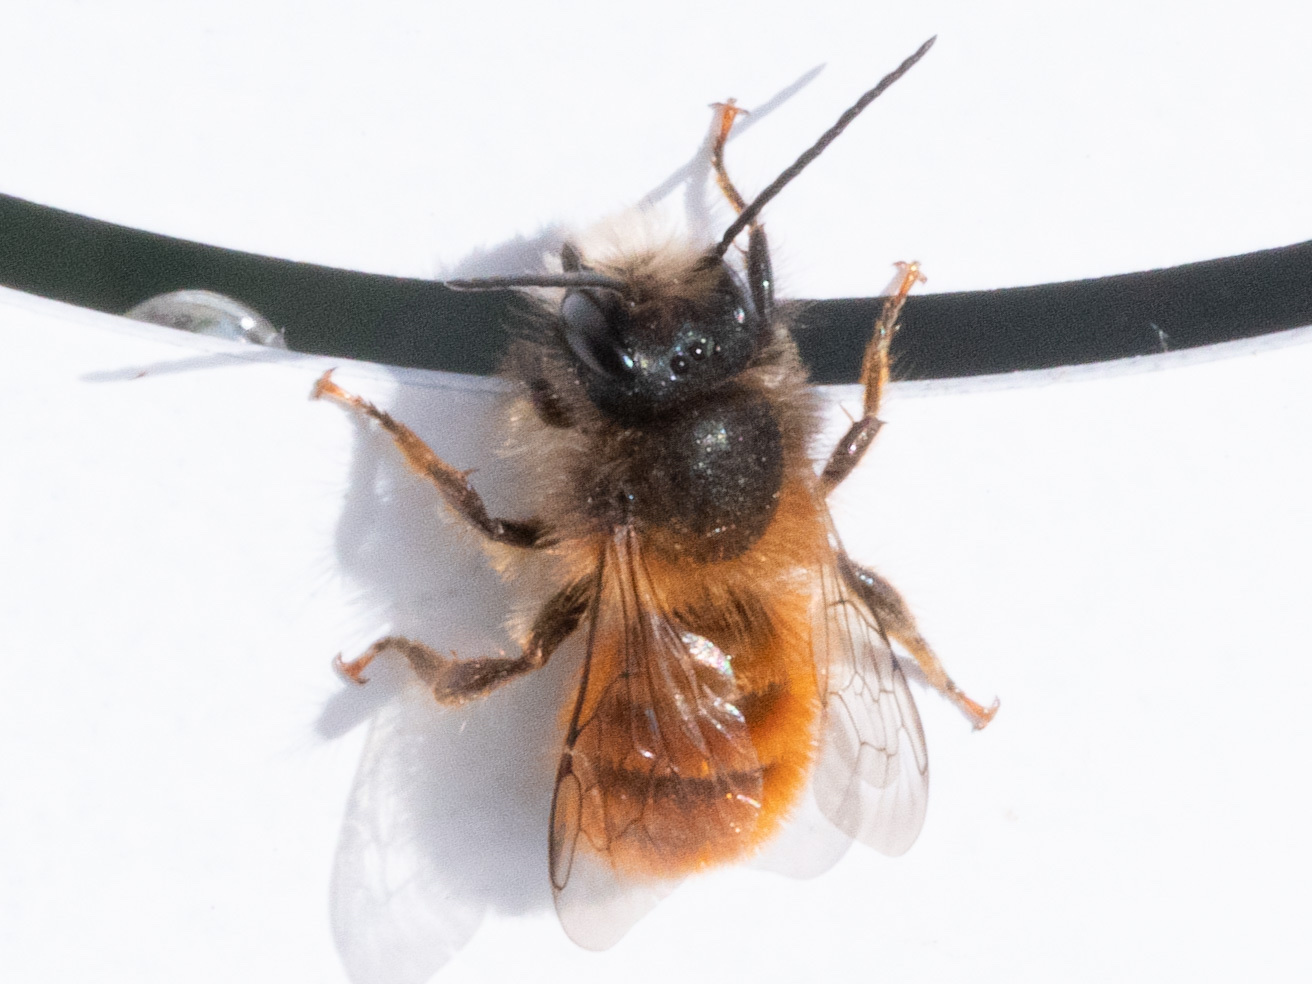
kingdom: Animalia
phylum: Arthropoda
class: Insecta
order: Hymenoptera
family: Megachilidae
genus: Osmia
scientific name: Osmia bicornis
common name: Red mason bee
